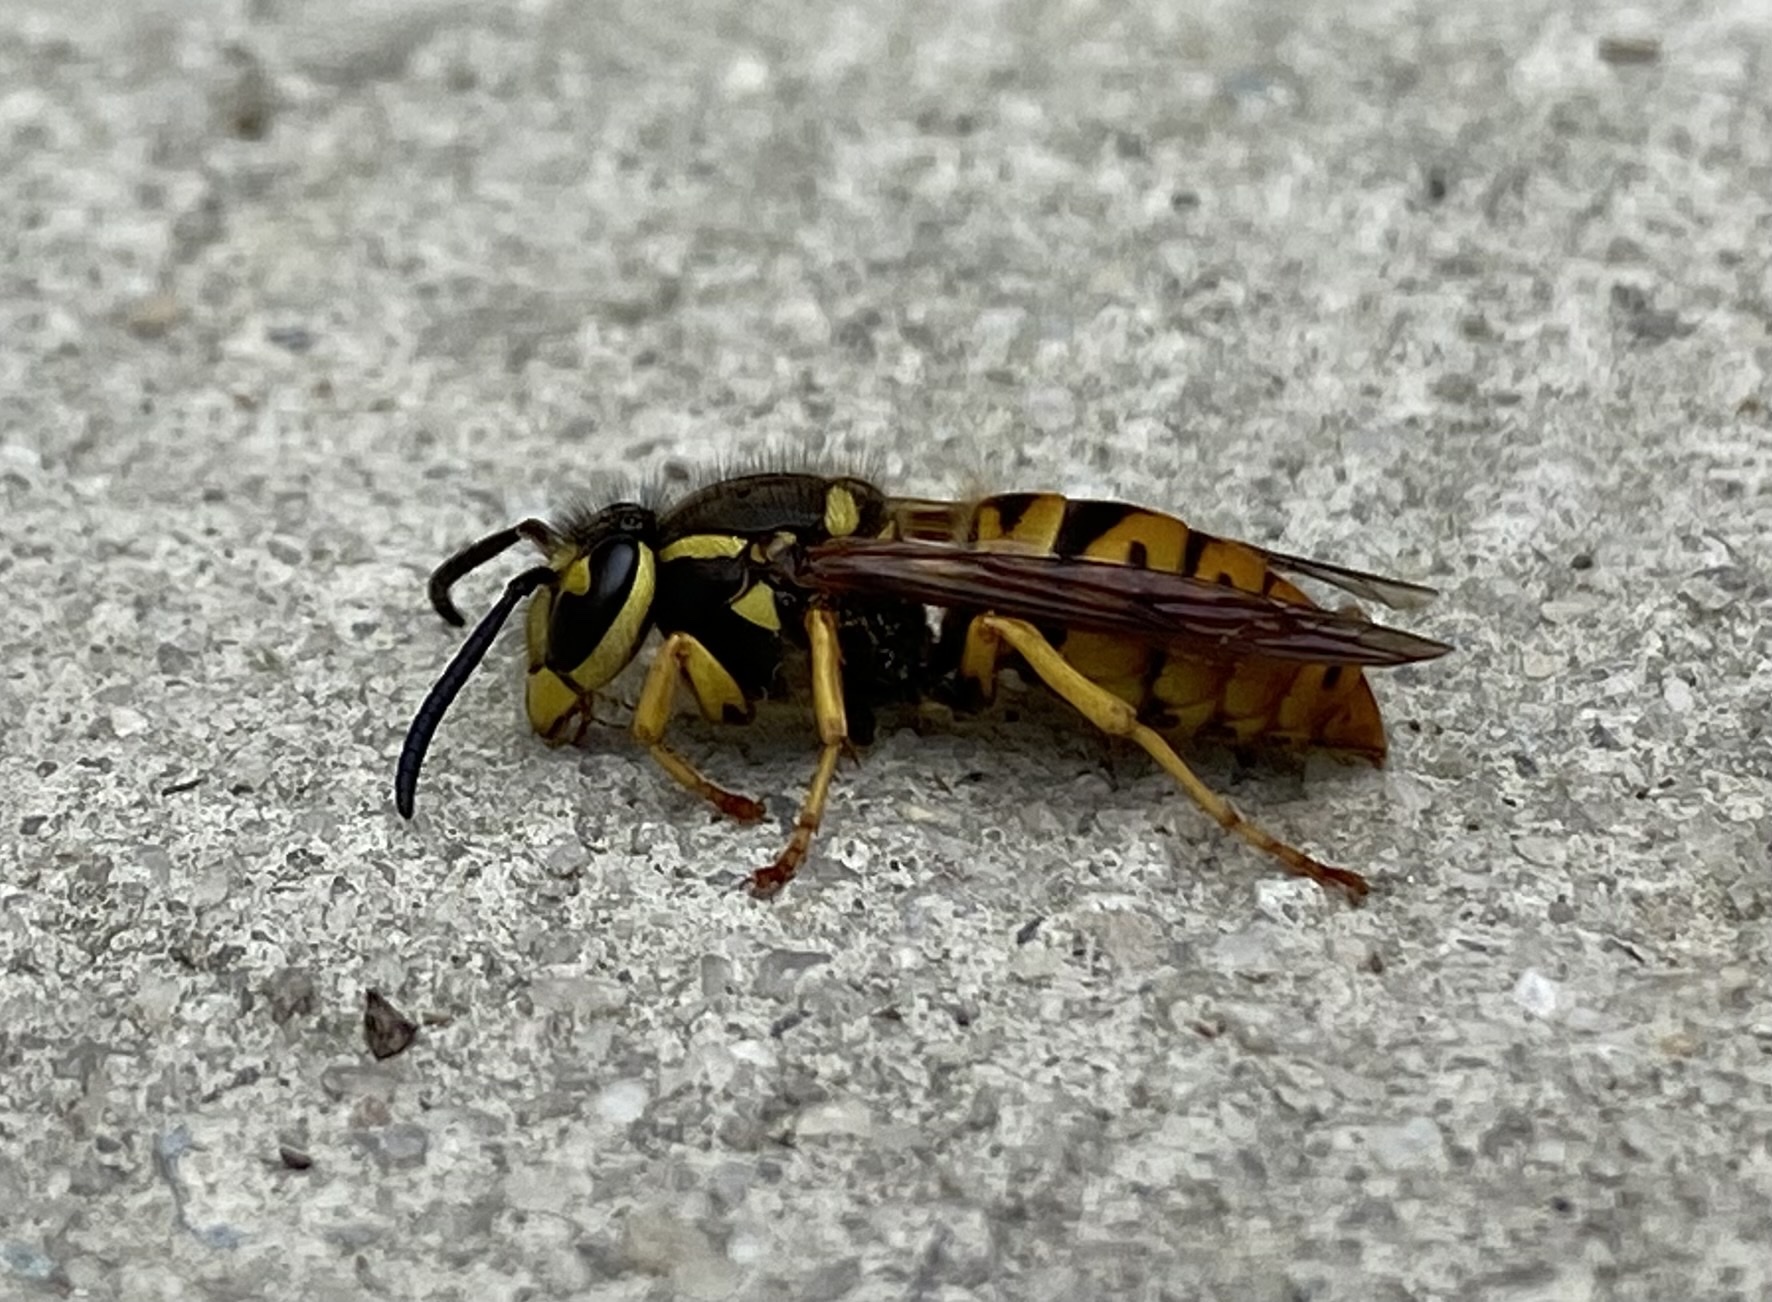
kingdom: Animalia
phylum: Arthropoda
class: Insecta
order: Hymenoptera
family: Vespidae
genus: Vespula
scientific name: Vespula maculifrons
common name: Eastern yellowjacket
